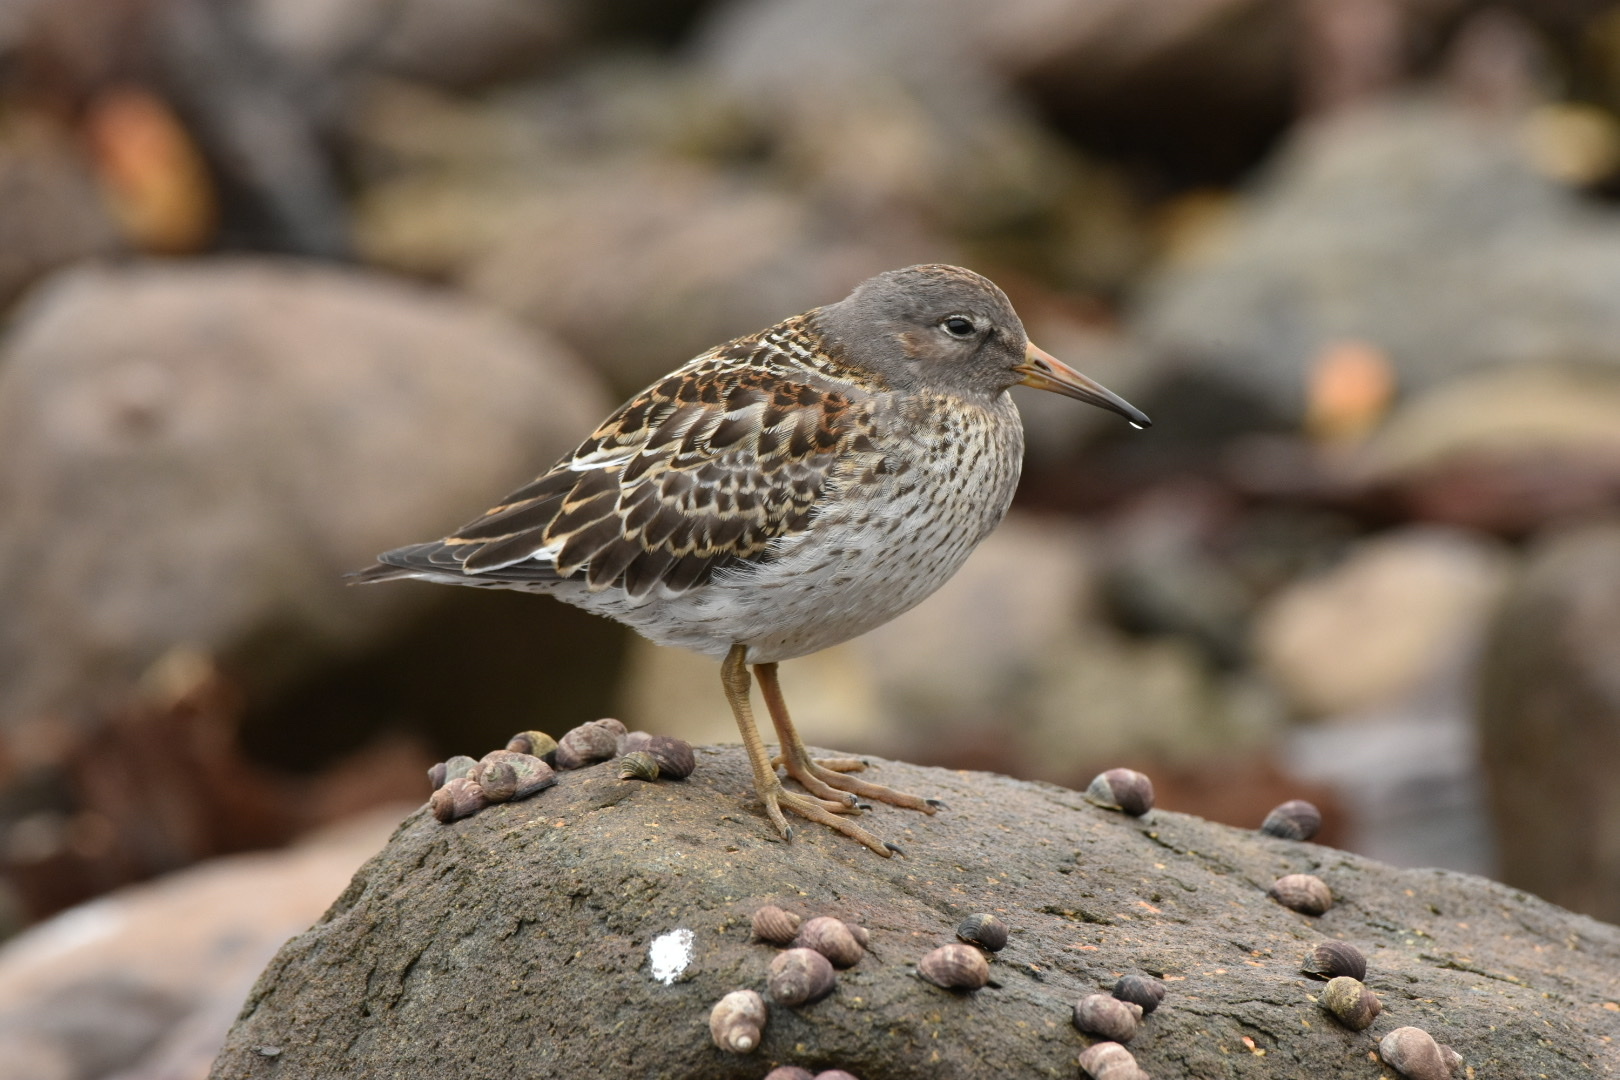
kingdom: Animalia
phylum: Chordata
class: Aves
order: Charadriiformes
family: Scolopacidae
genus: Calidris
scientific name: Calidris ptilocnemis
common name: Rock sandpiper
